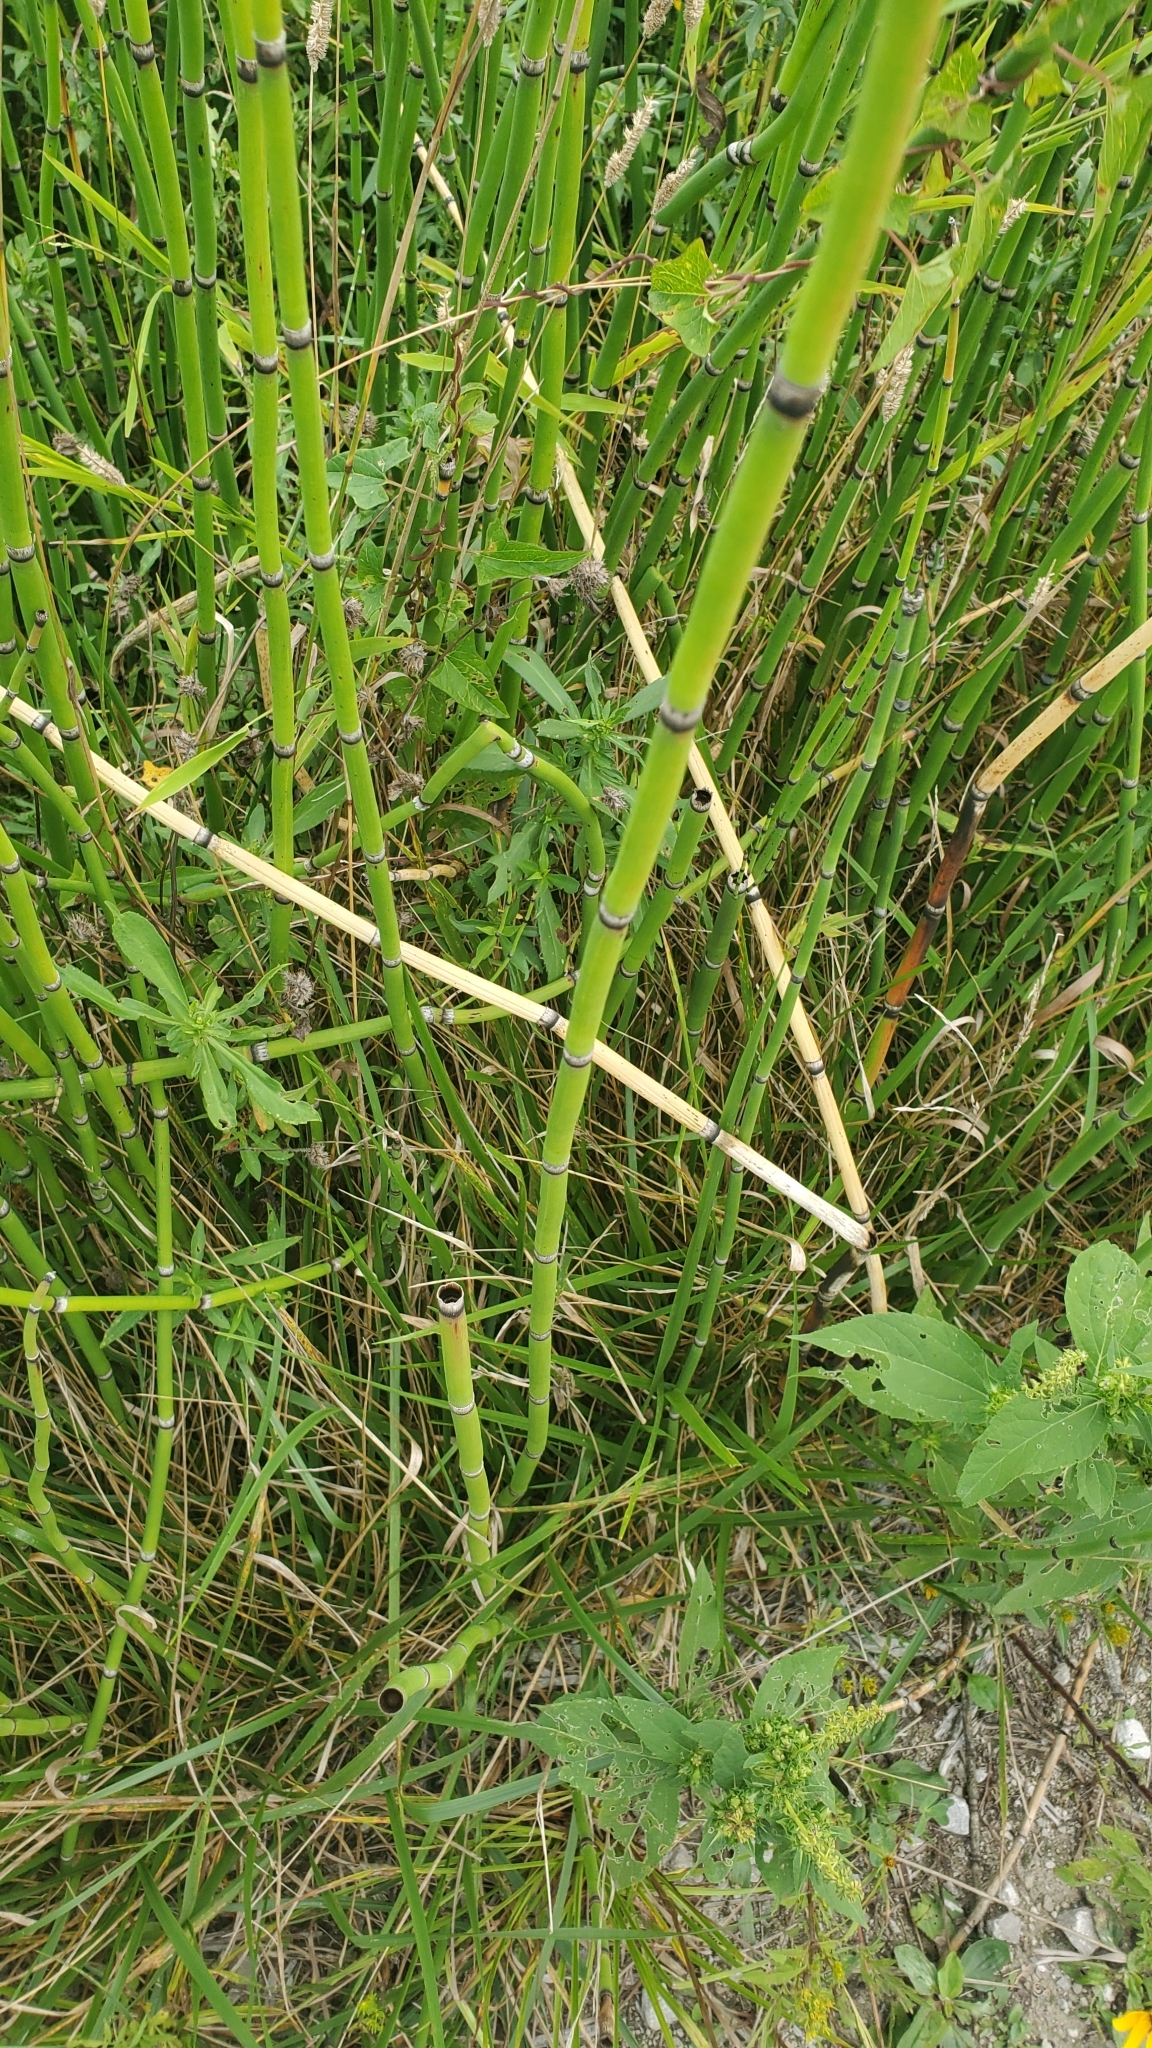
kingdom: Plantae
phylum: Tracheophyta
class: Polypodiopsida
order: Equisetales
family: Equisetaceae
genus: Equisetum
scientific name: Equisetum praealtum
